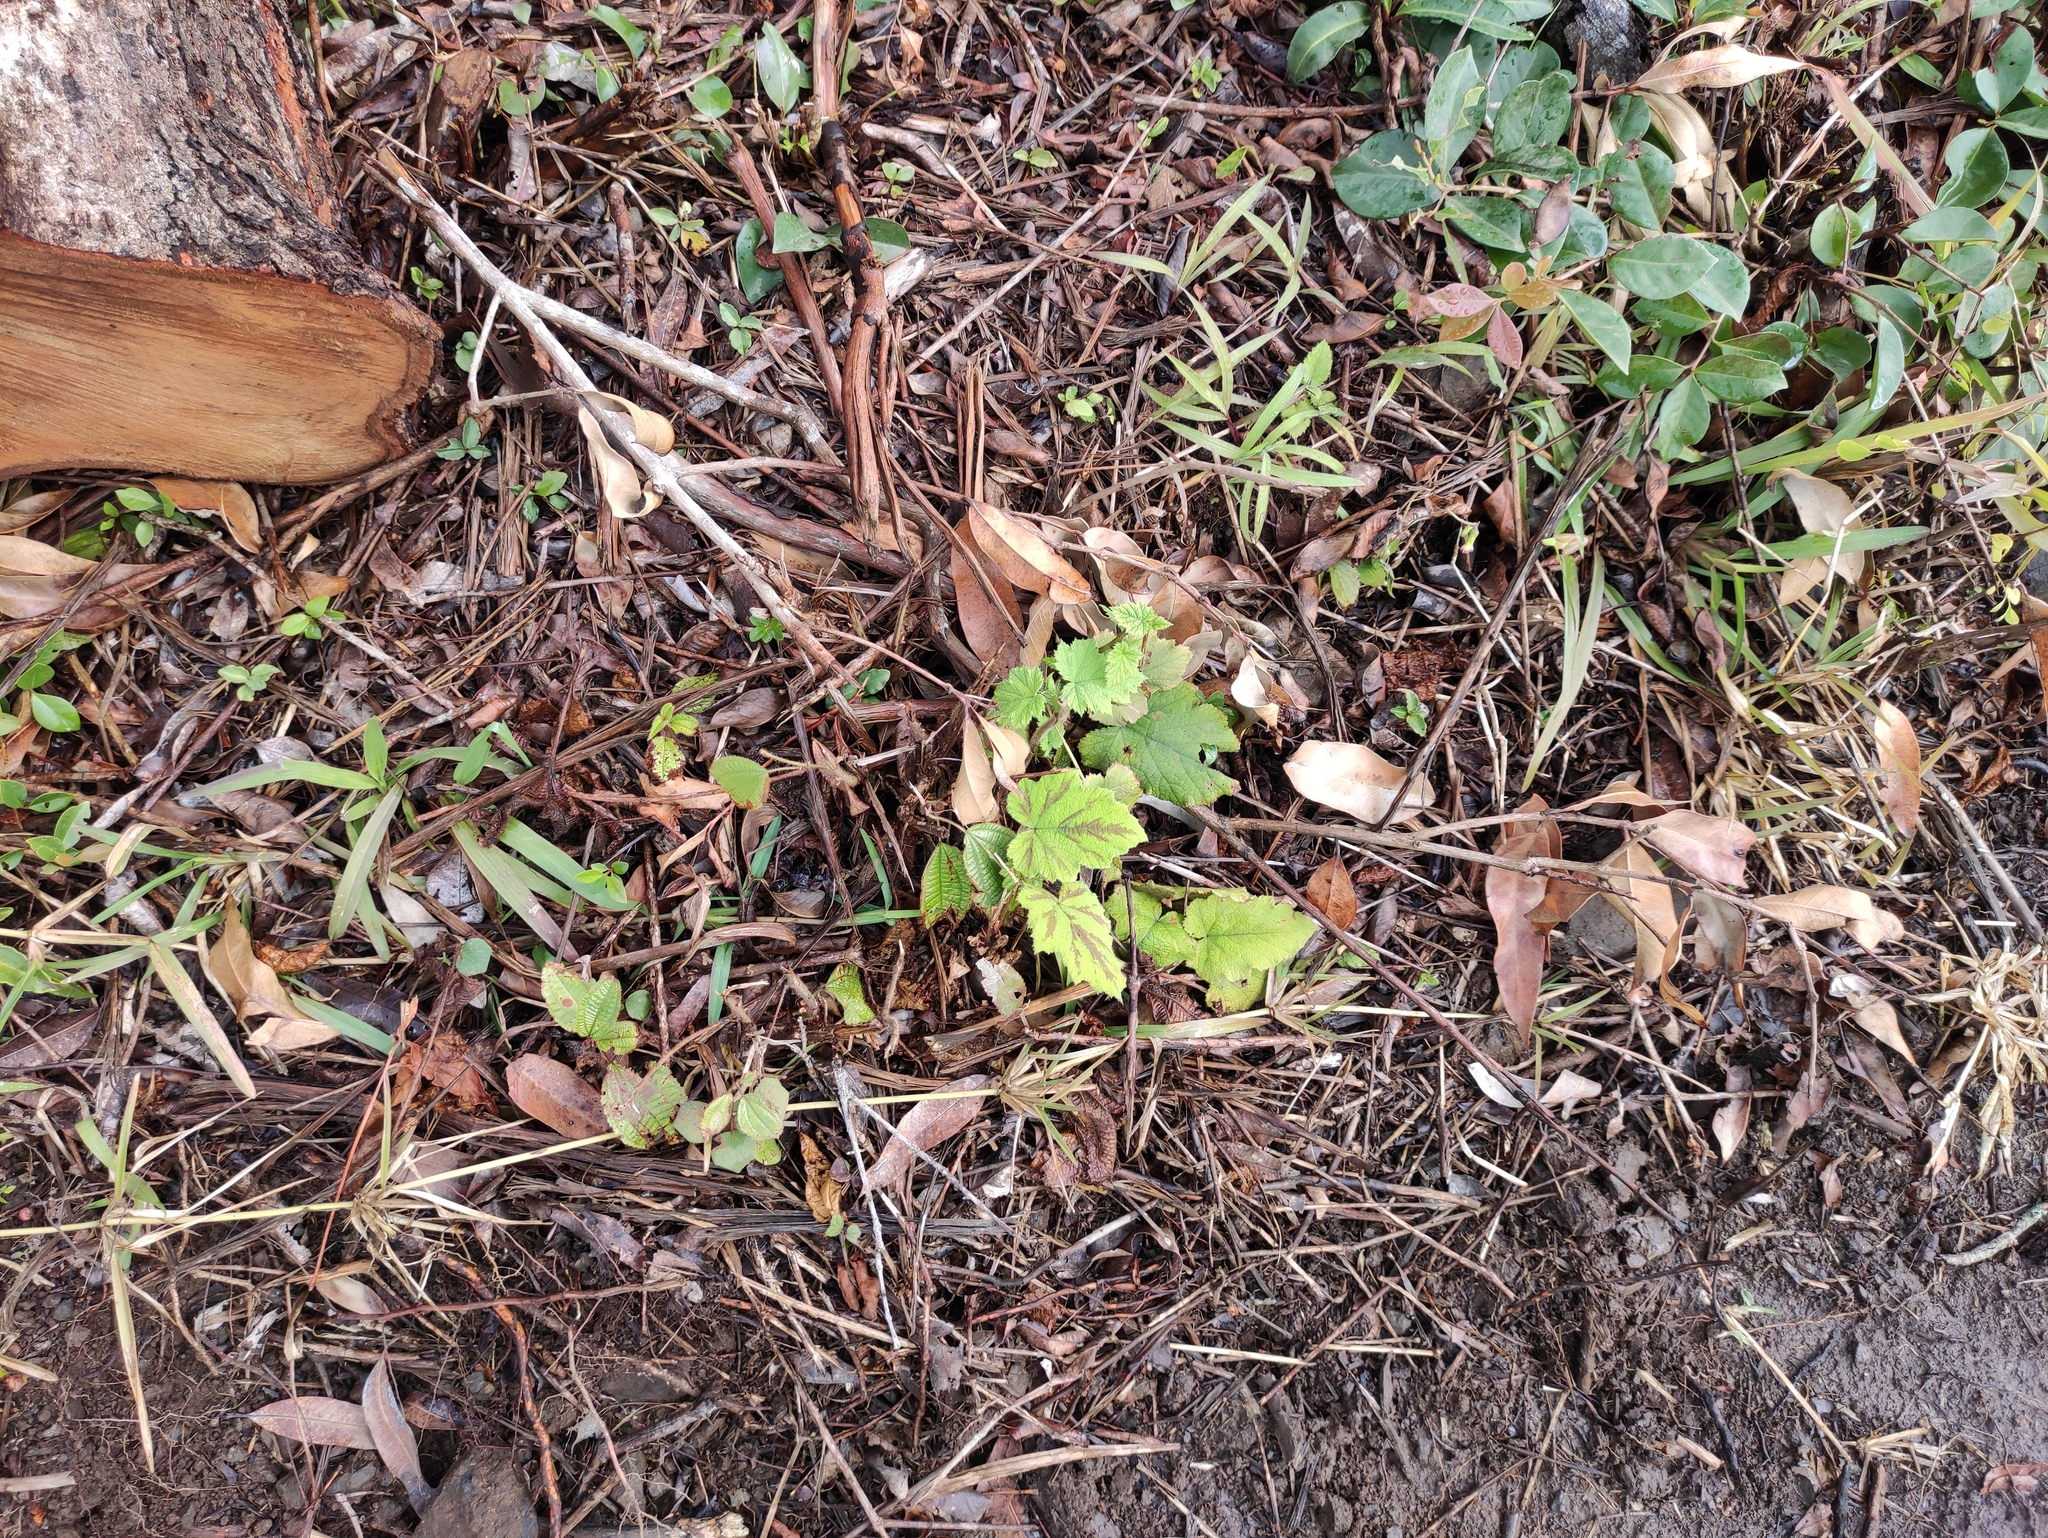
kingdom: Plantae
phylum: Tracheophyta
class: Magnoliopsida
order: Rosales
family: Rosaceae
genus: Rubus
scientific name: Rubus alceifolius
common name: Giant bramble
